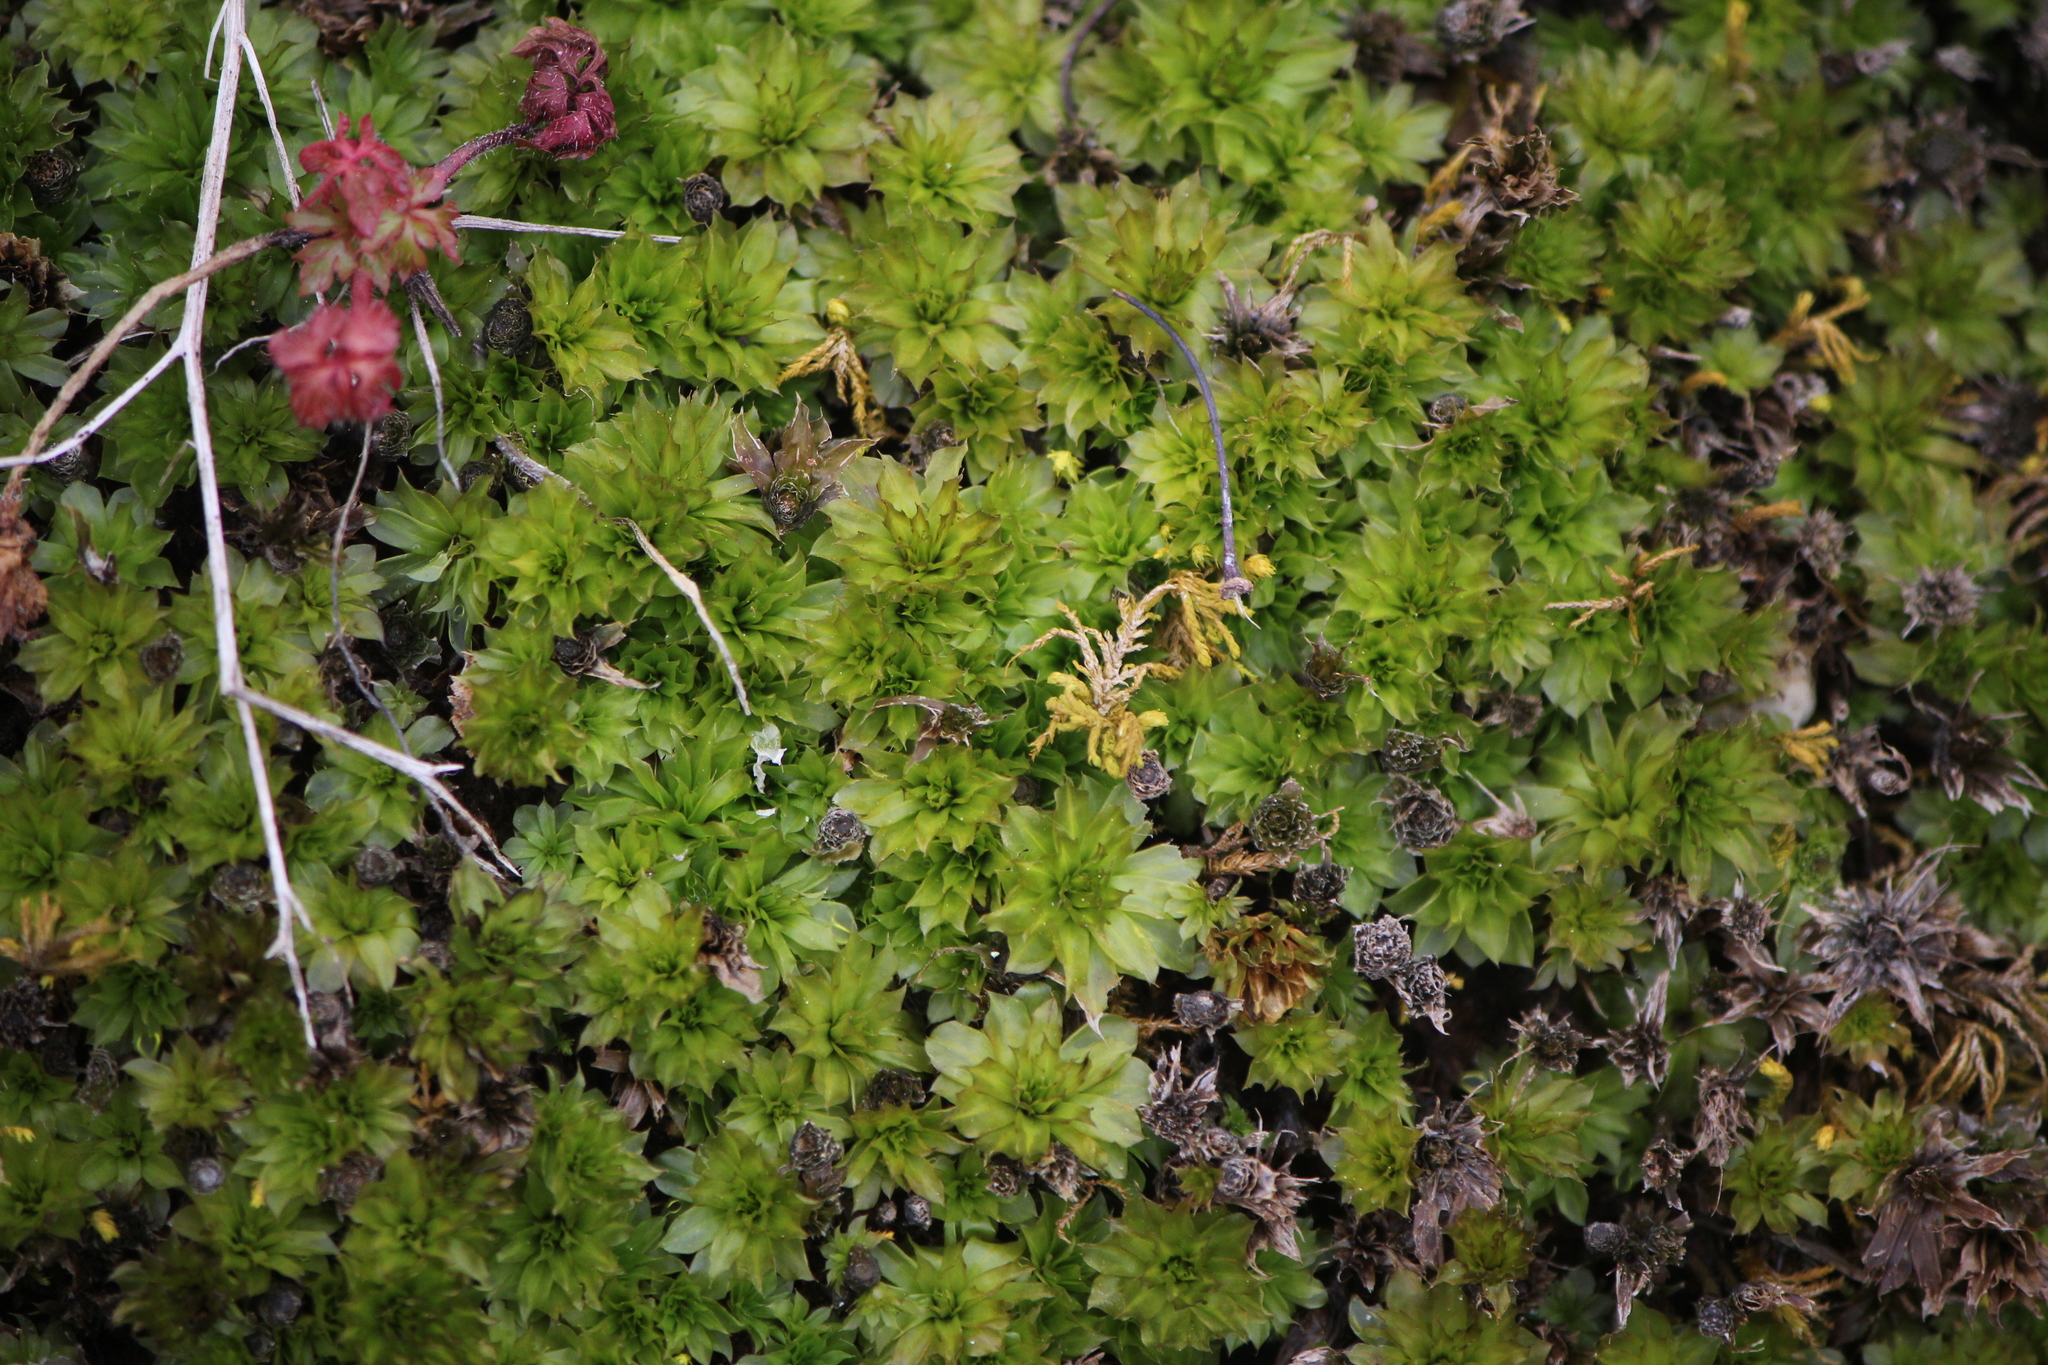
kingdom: Plantae
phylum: Bryophyta
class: Bryopsida
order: Bryales
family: Bryaceae
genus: Rhodobryum
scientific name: Rhodobryum ontariense
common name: Ontario rhodobryum moss
